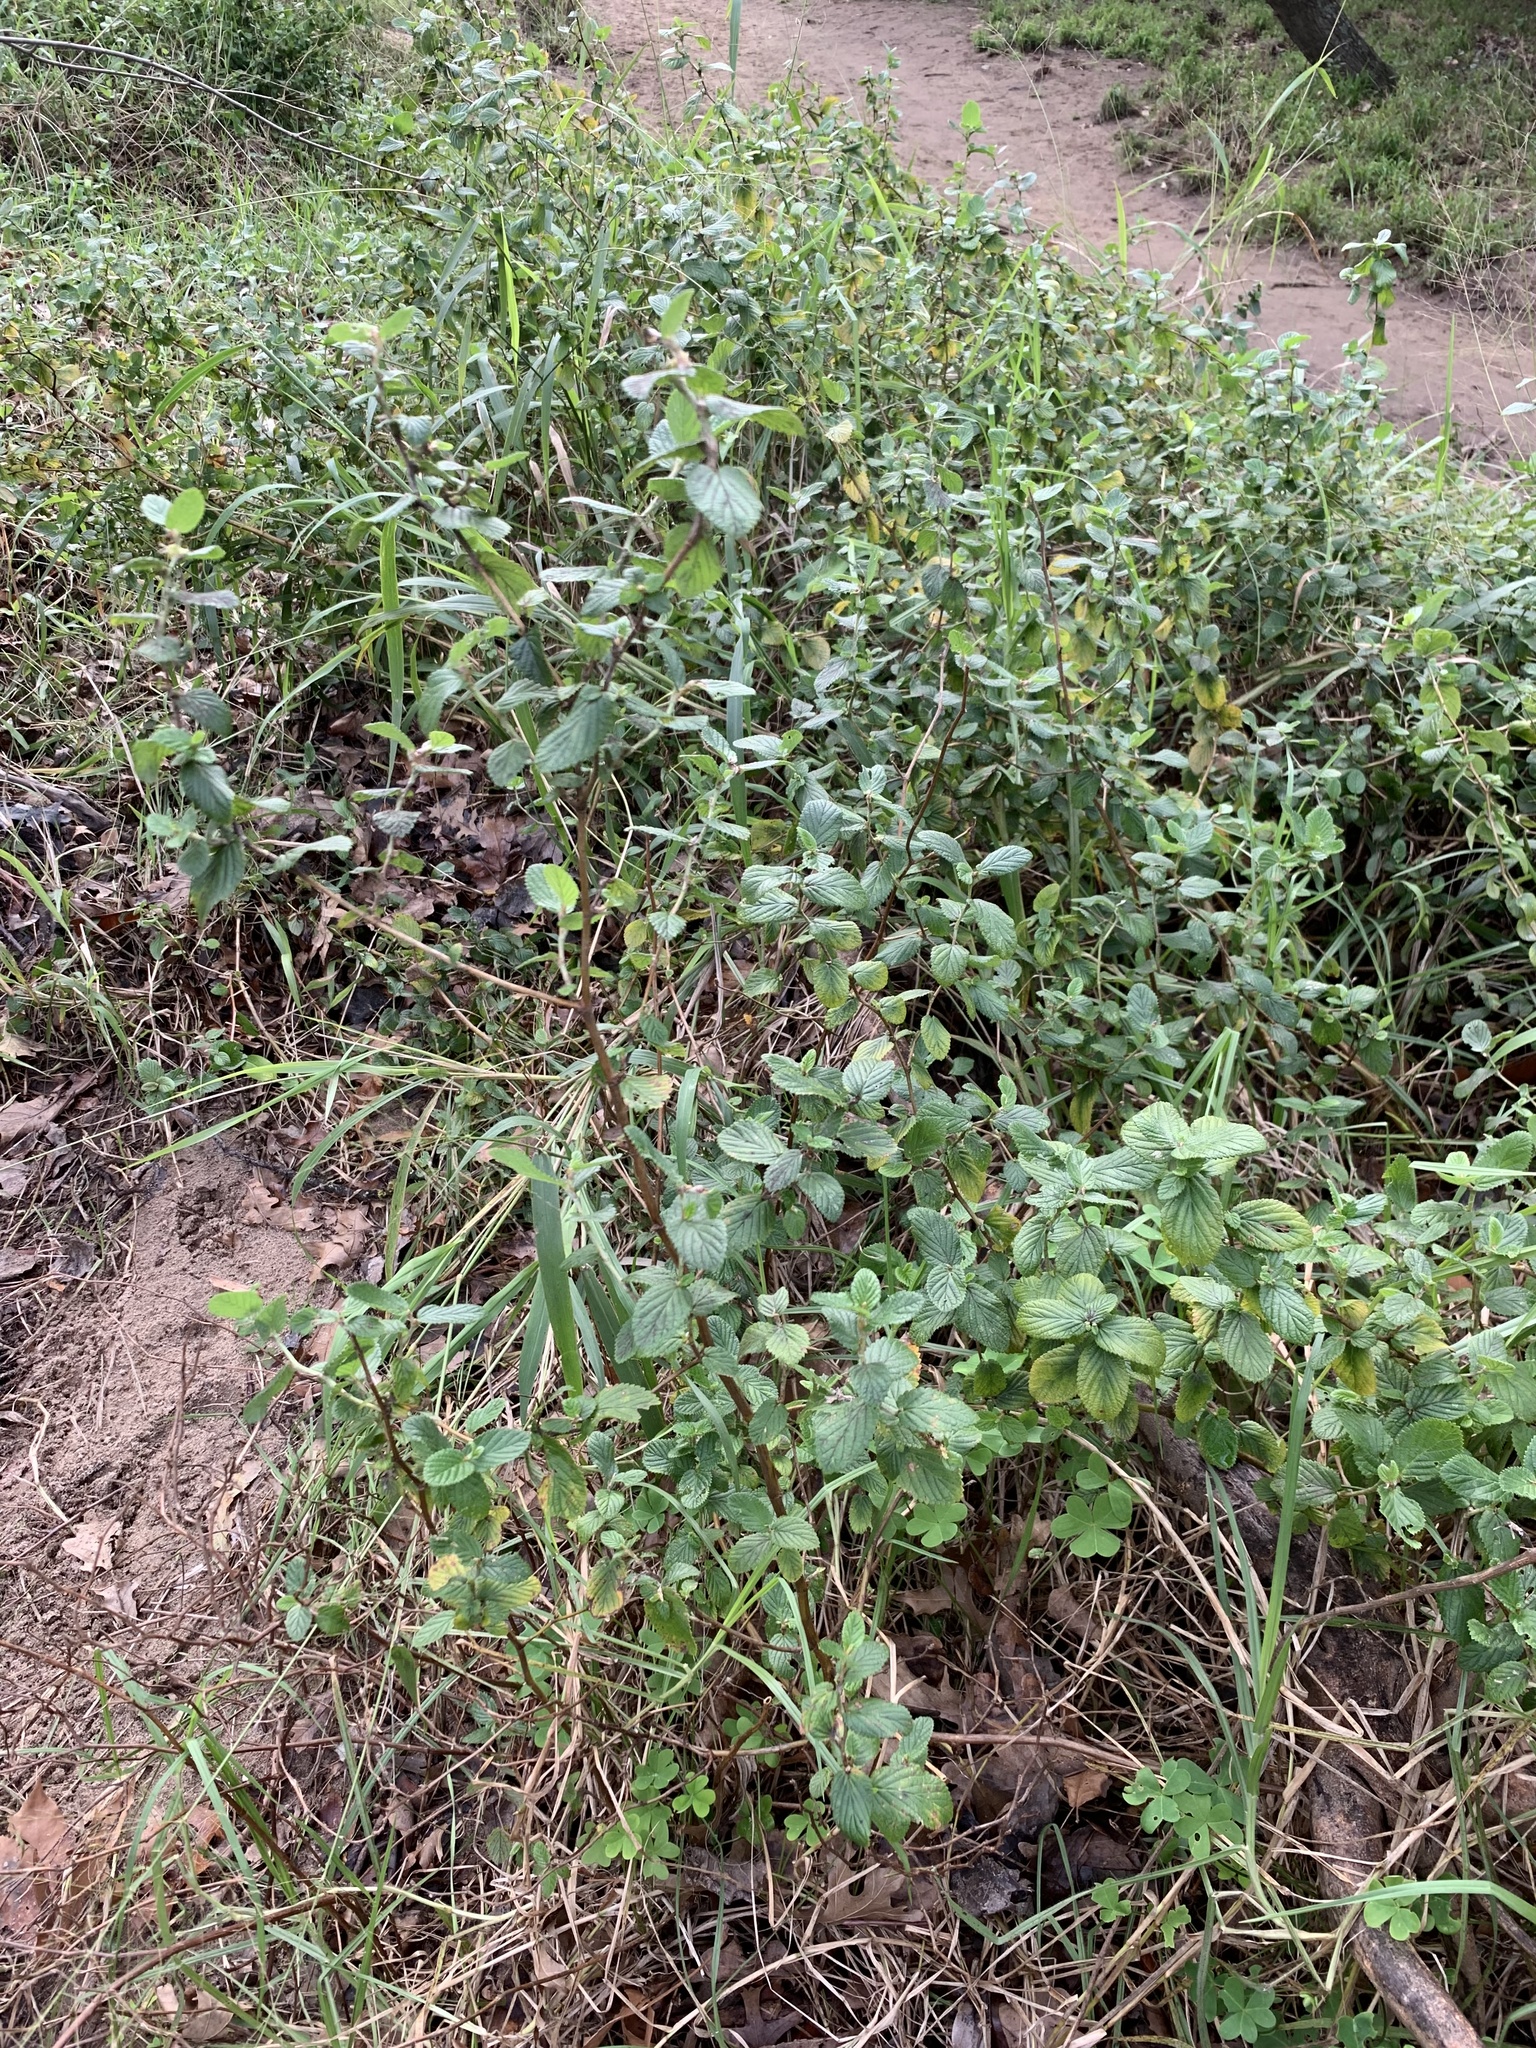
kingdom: Plantae
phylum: Tracheophyta
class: Magnoliopsida
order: Rosales
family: Rosaceae
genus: Cliffortia
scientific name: Cliffortia odorata
